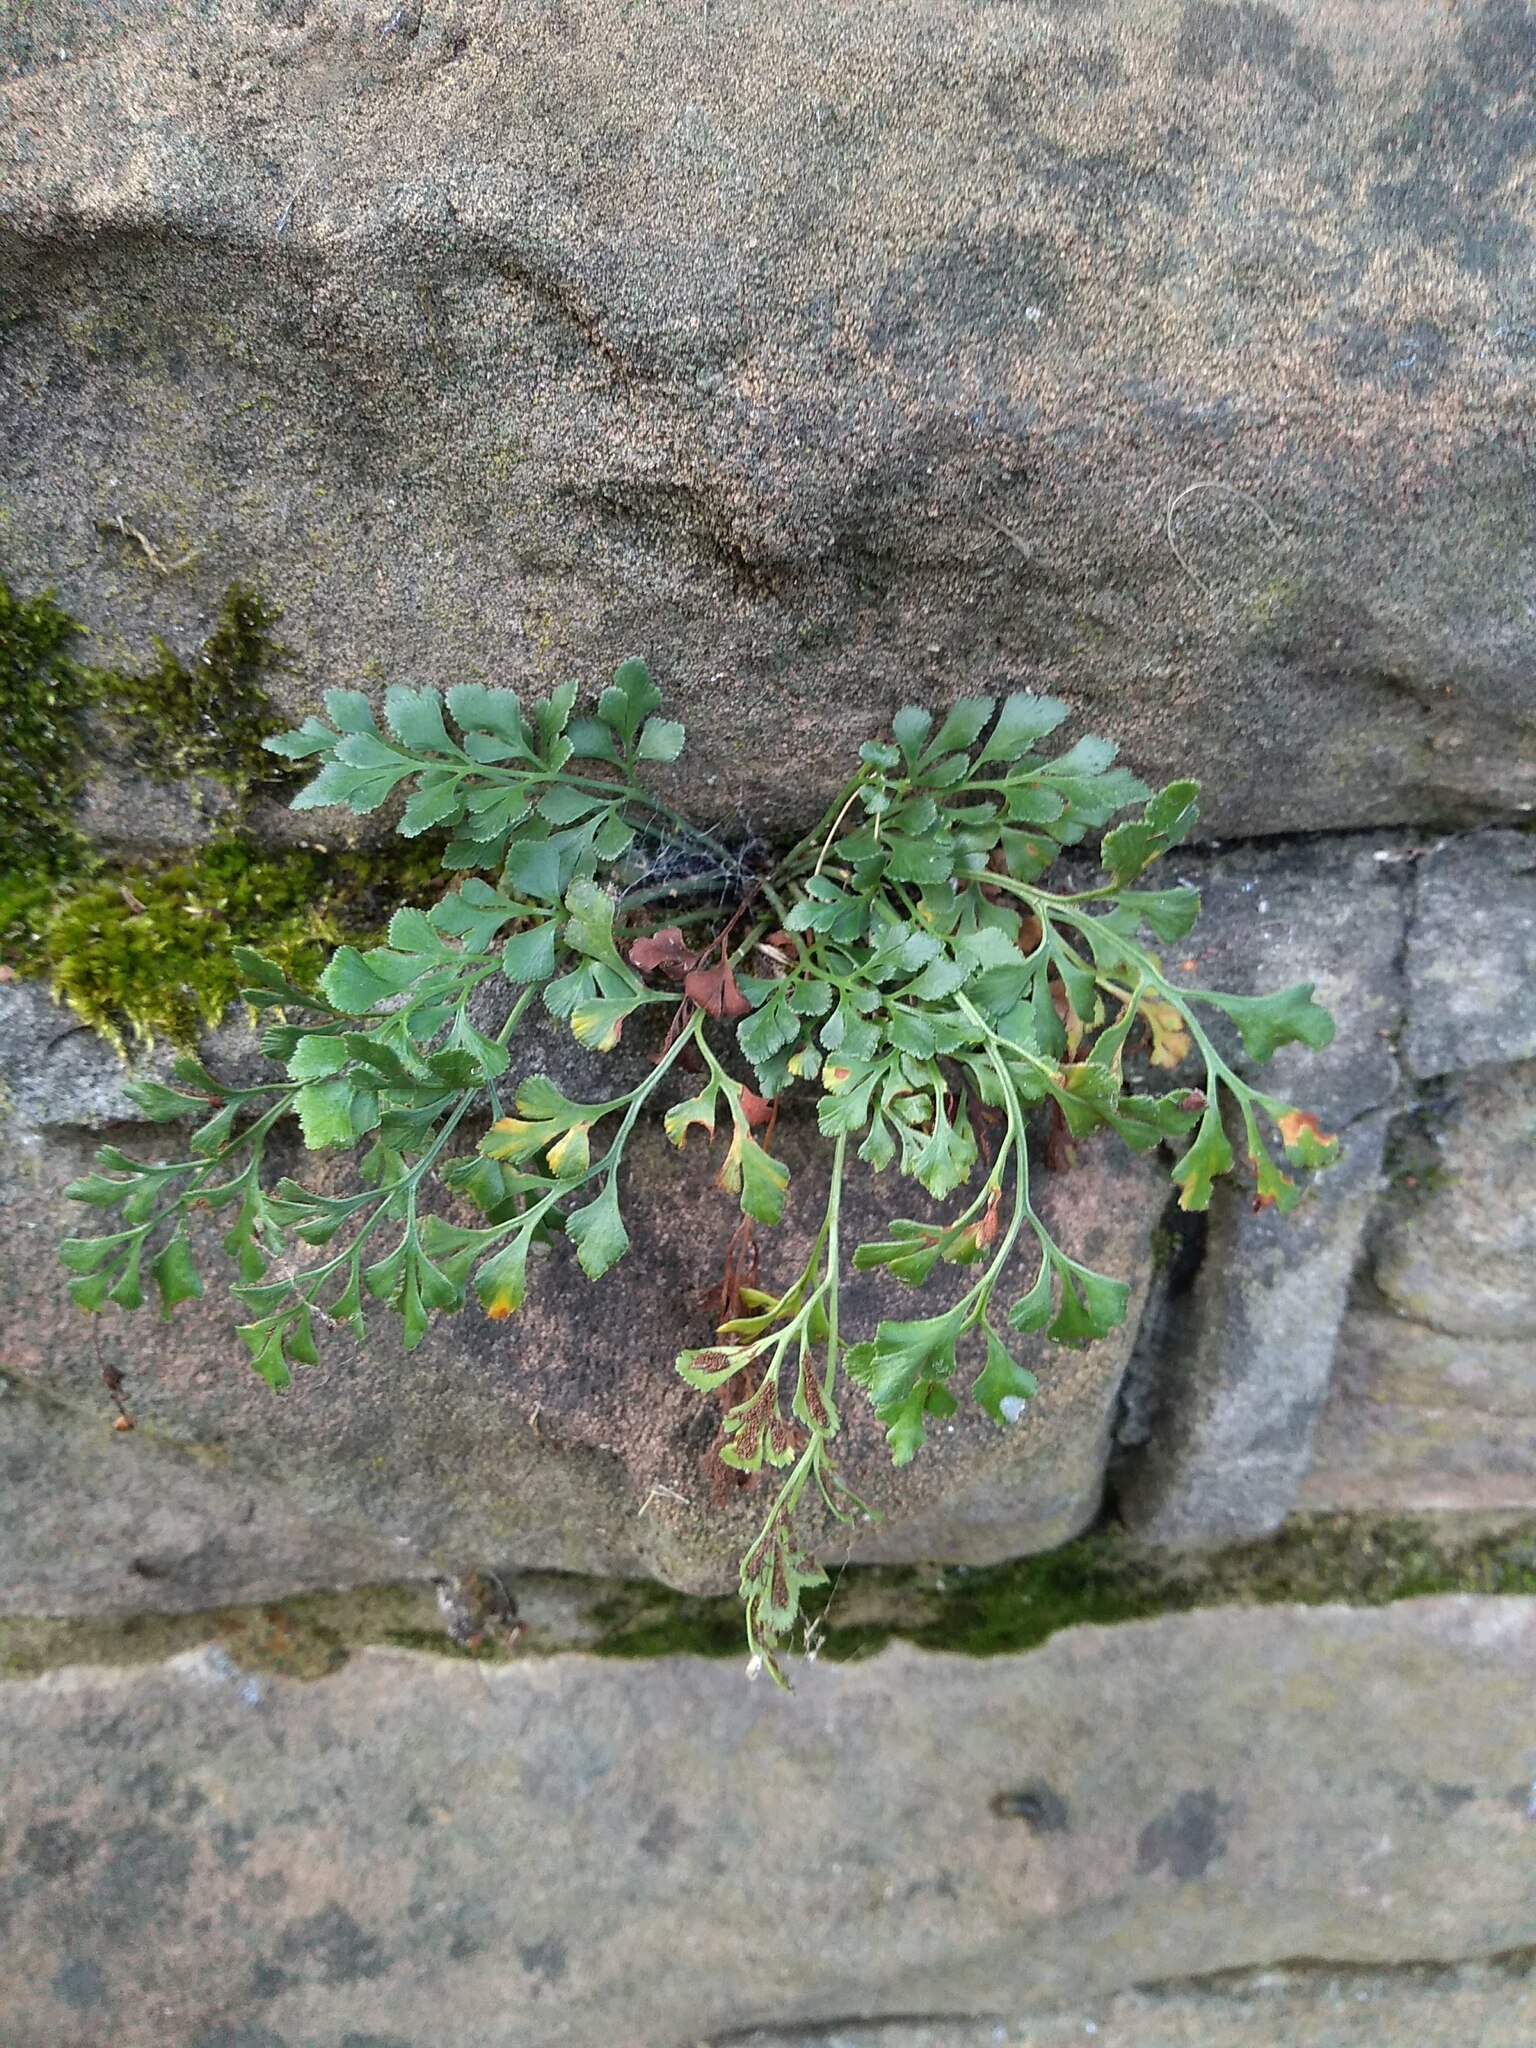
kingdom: Plantae
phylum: Tracheophyta
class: Polypodiopsida
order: Polypodiales
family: Aspleniaceae
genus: Asplenium
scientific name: Asplenium ruta-muraria
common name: Wall-rue
